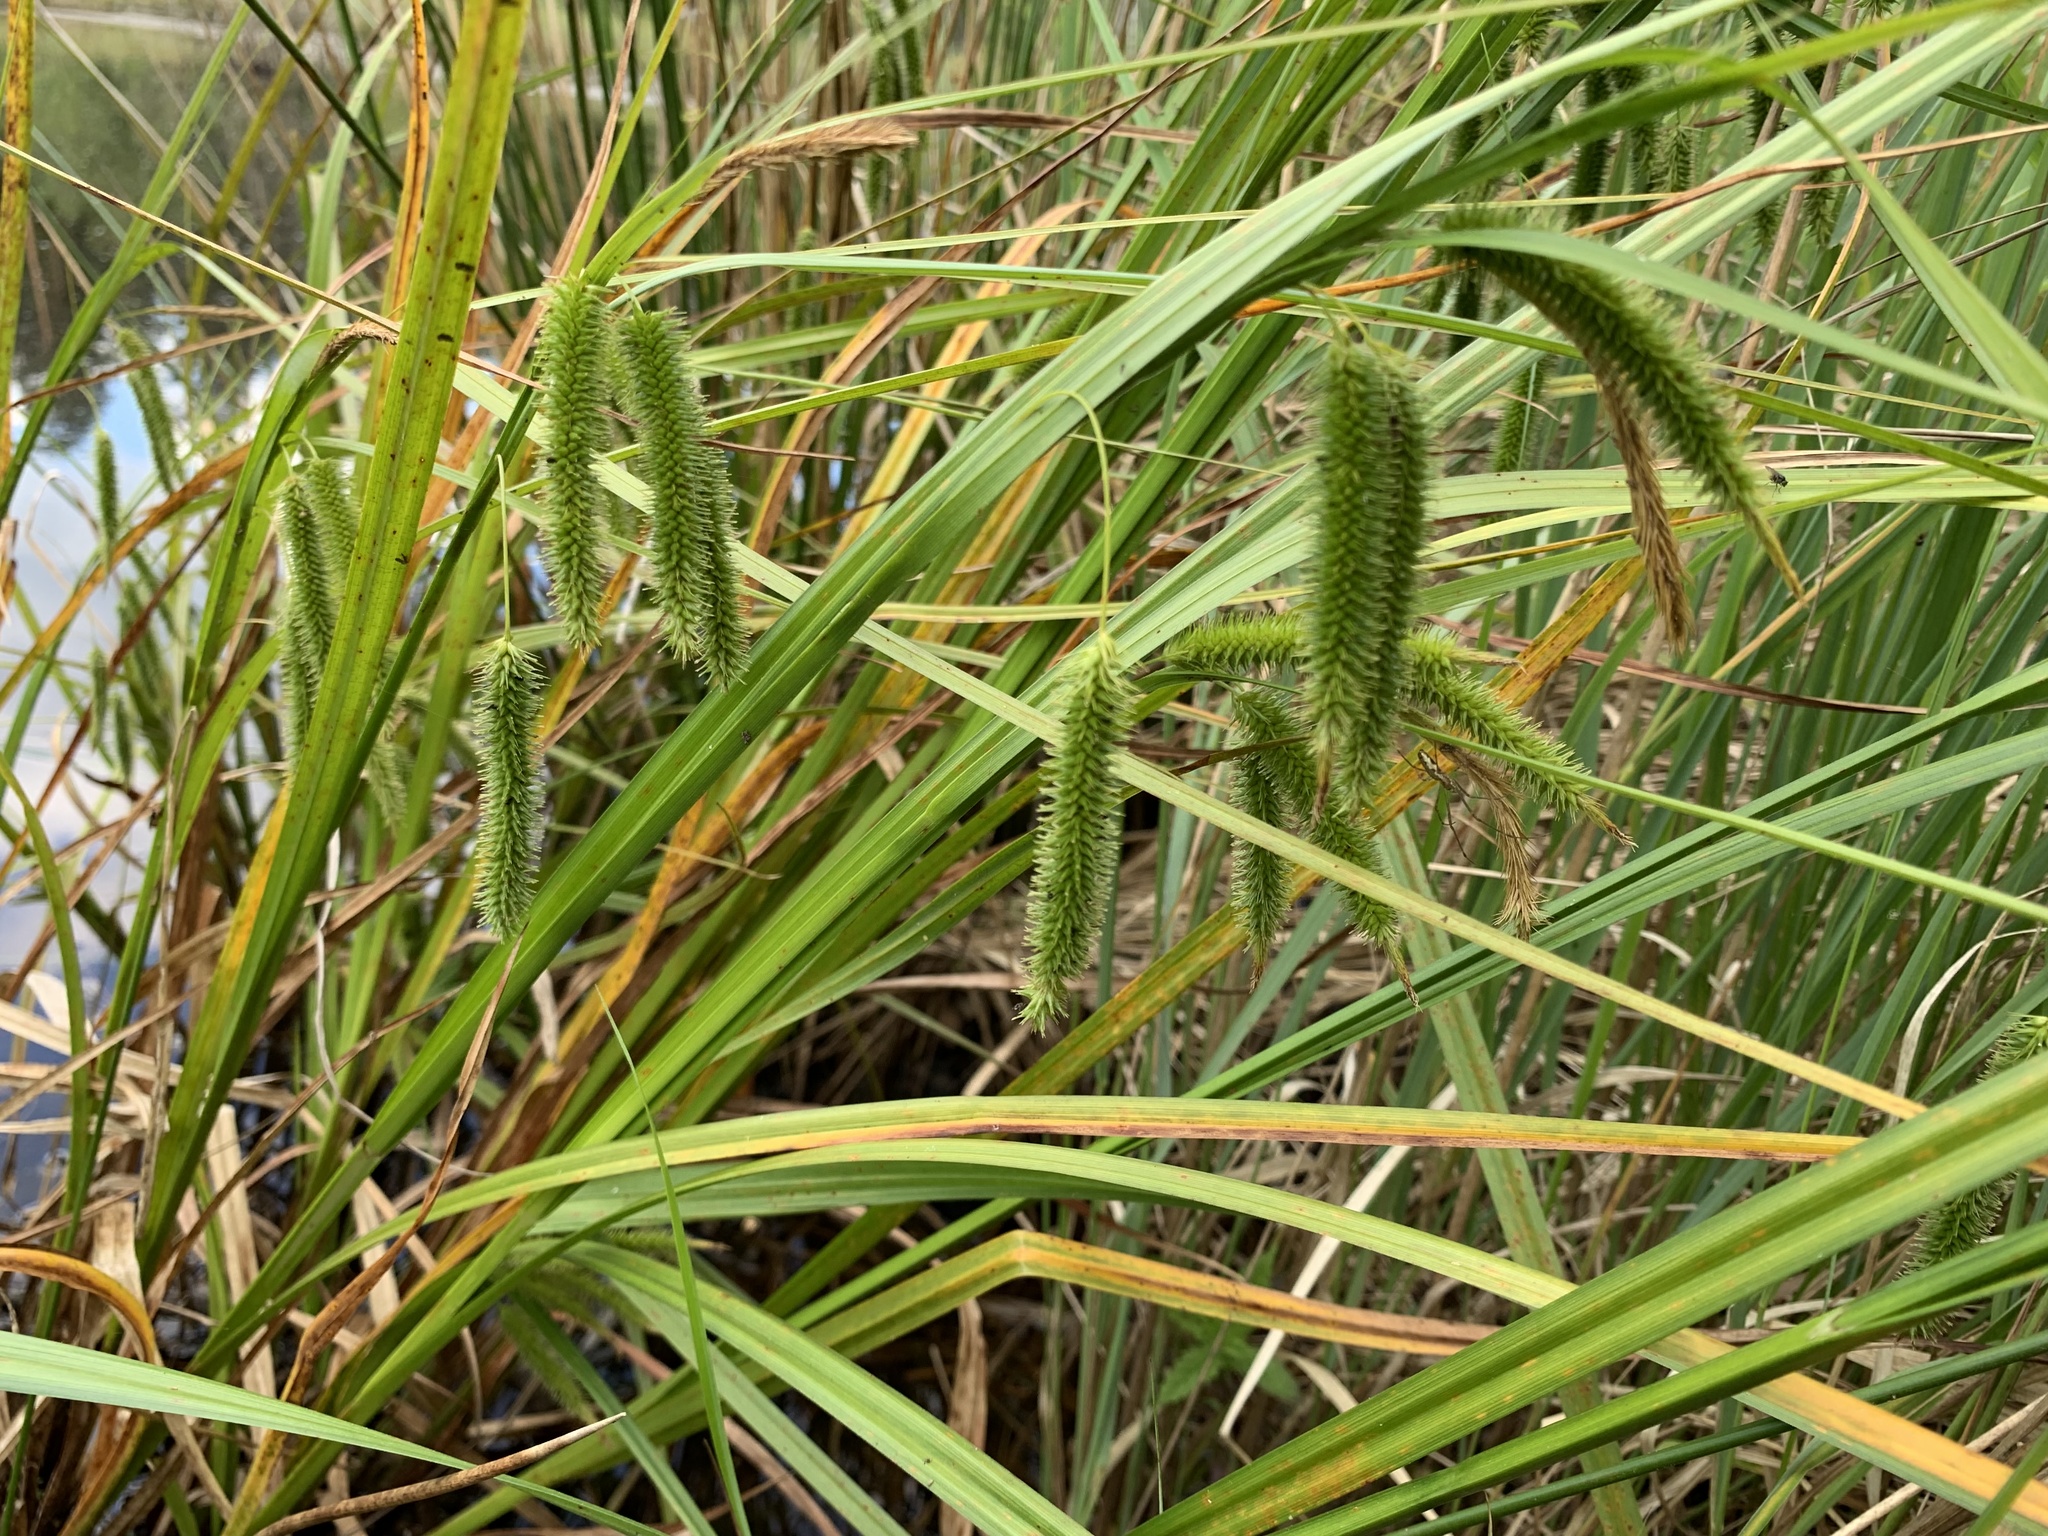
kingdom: Plantae
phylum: Tracheophyta
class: Liliopsida
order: Poales
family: Cyperaceae
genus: Carex
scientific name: Carex pseudocyperus
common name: Cyperus sedge
